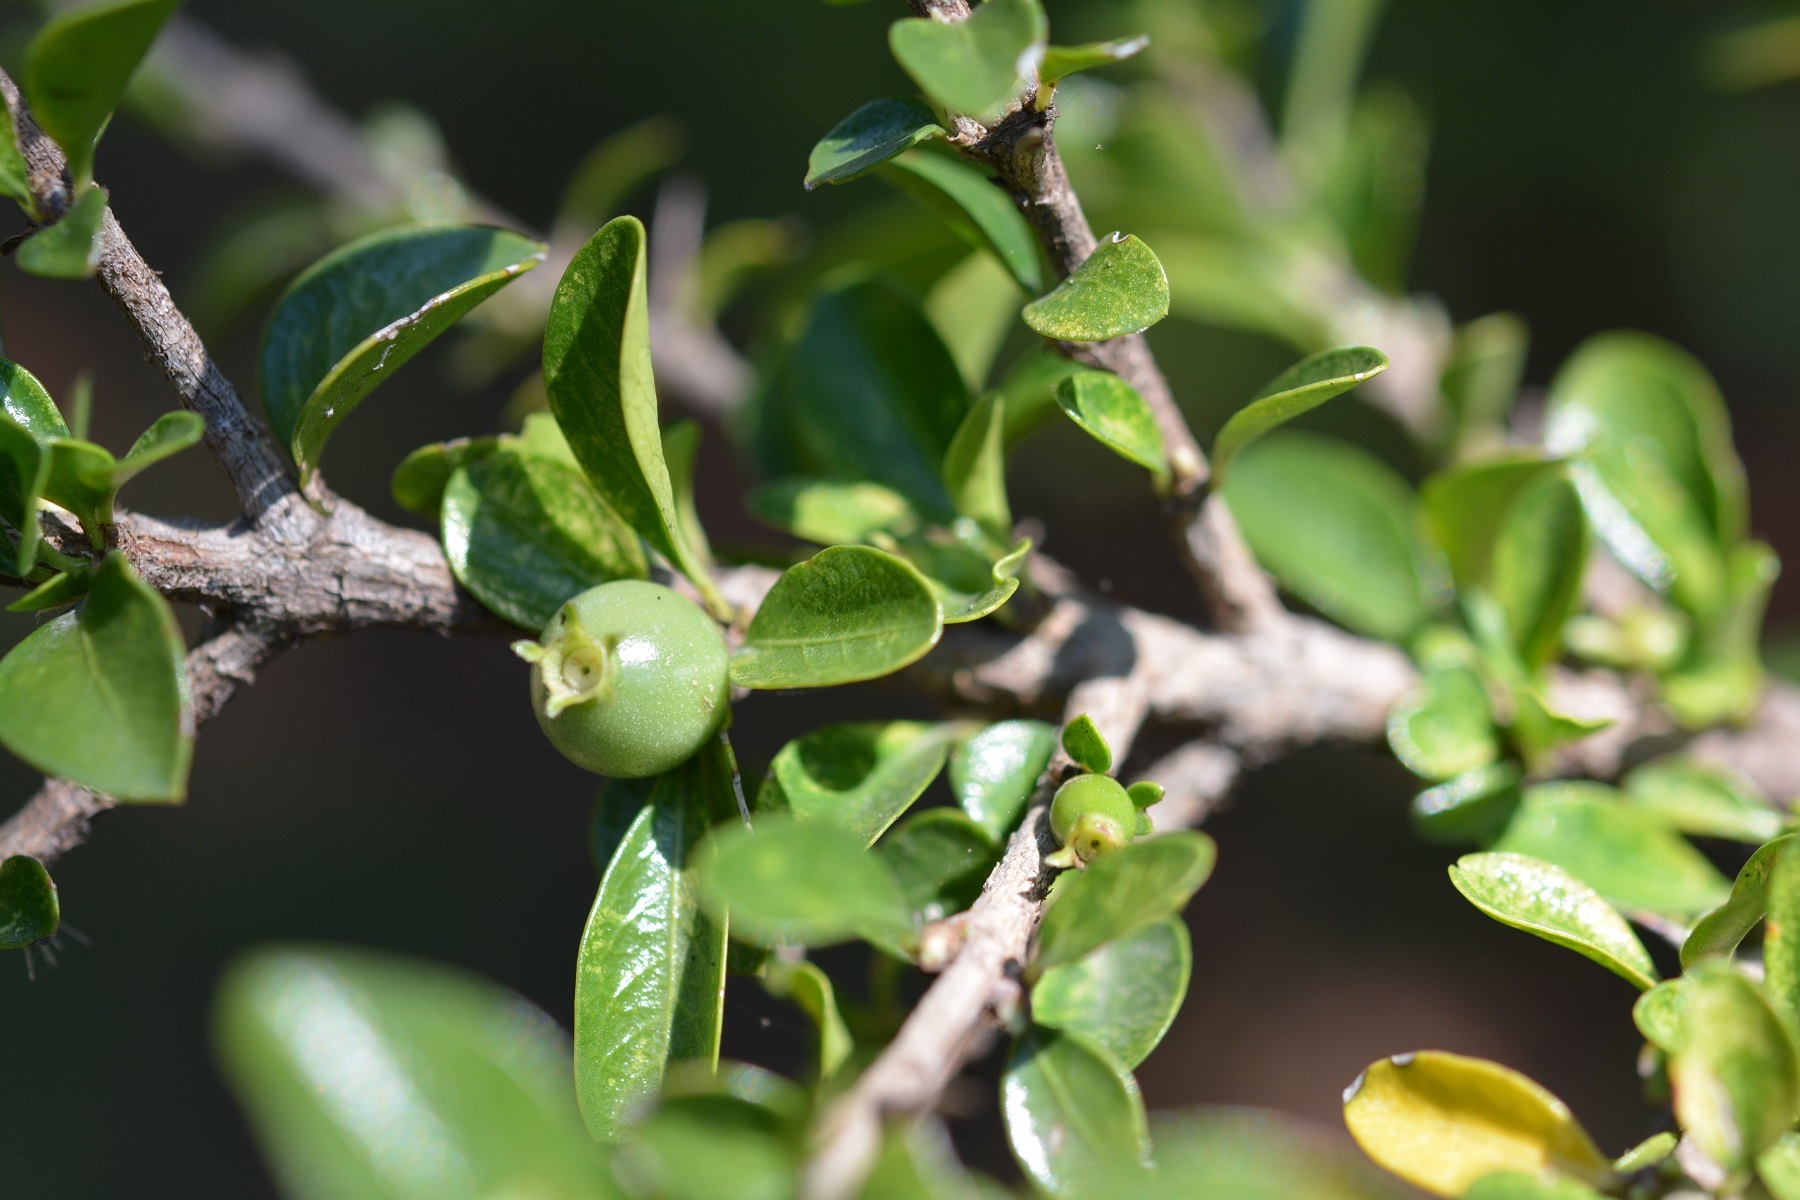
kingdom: Plantae
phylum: Tracheophyta
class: Magnoliopsida
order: Gentianales
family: Rubiaceae
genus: Randia
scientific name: Randia chiapensis
